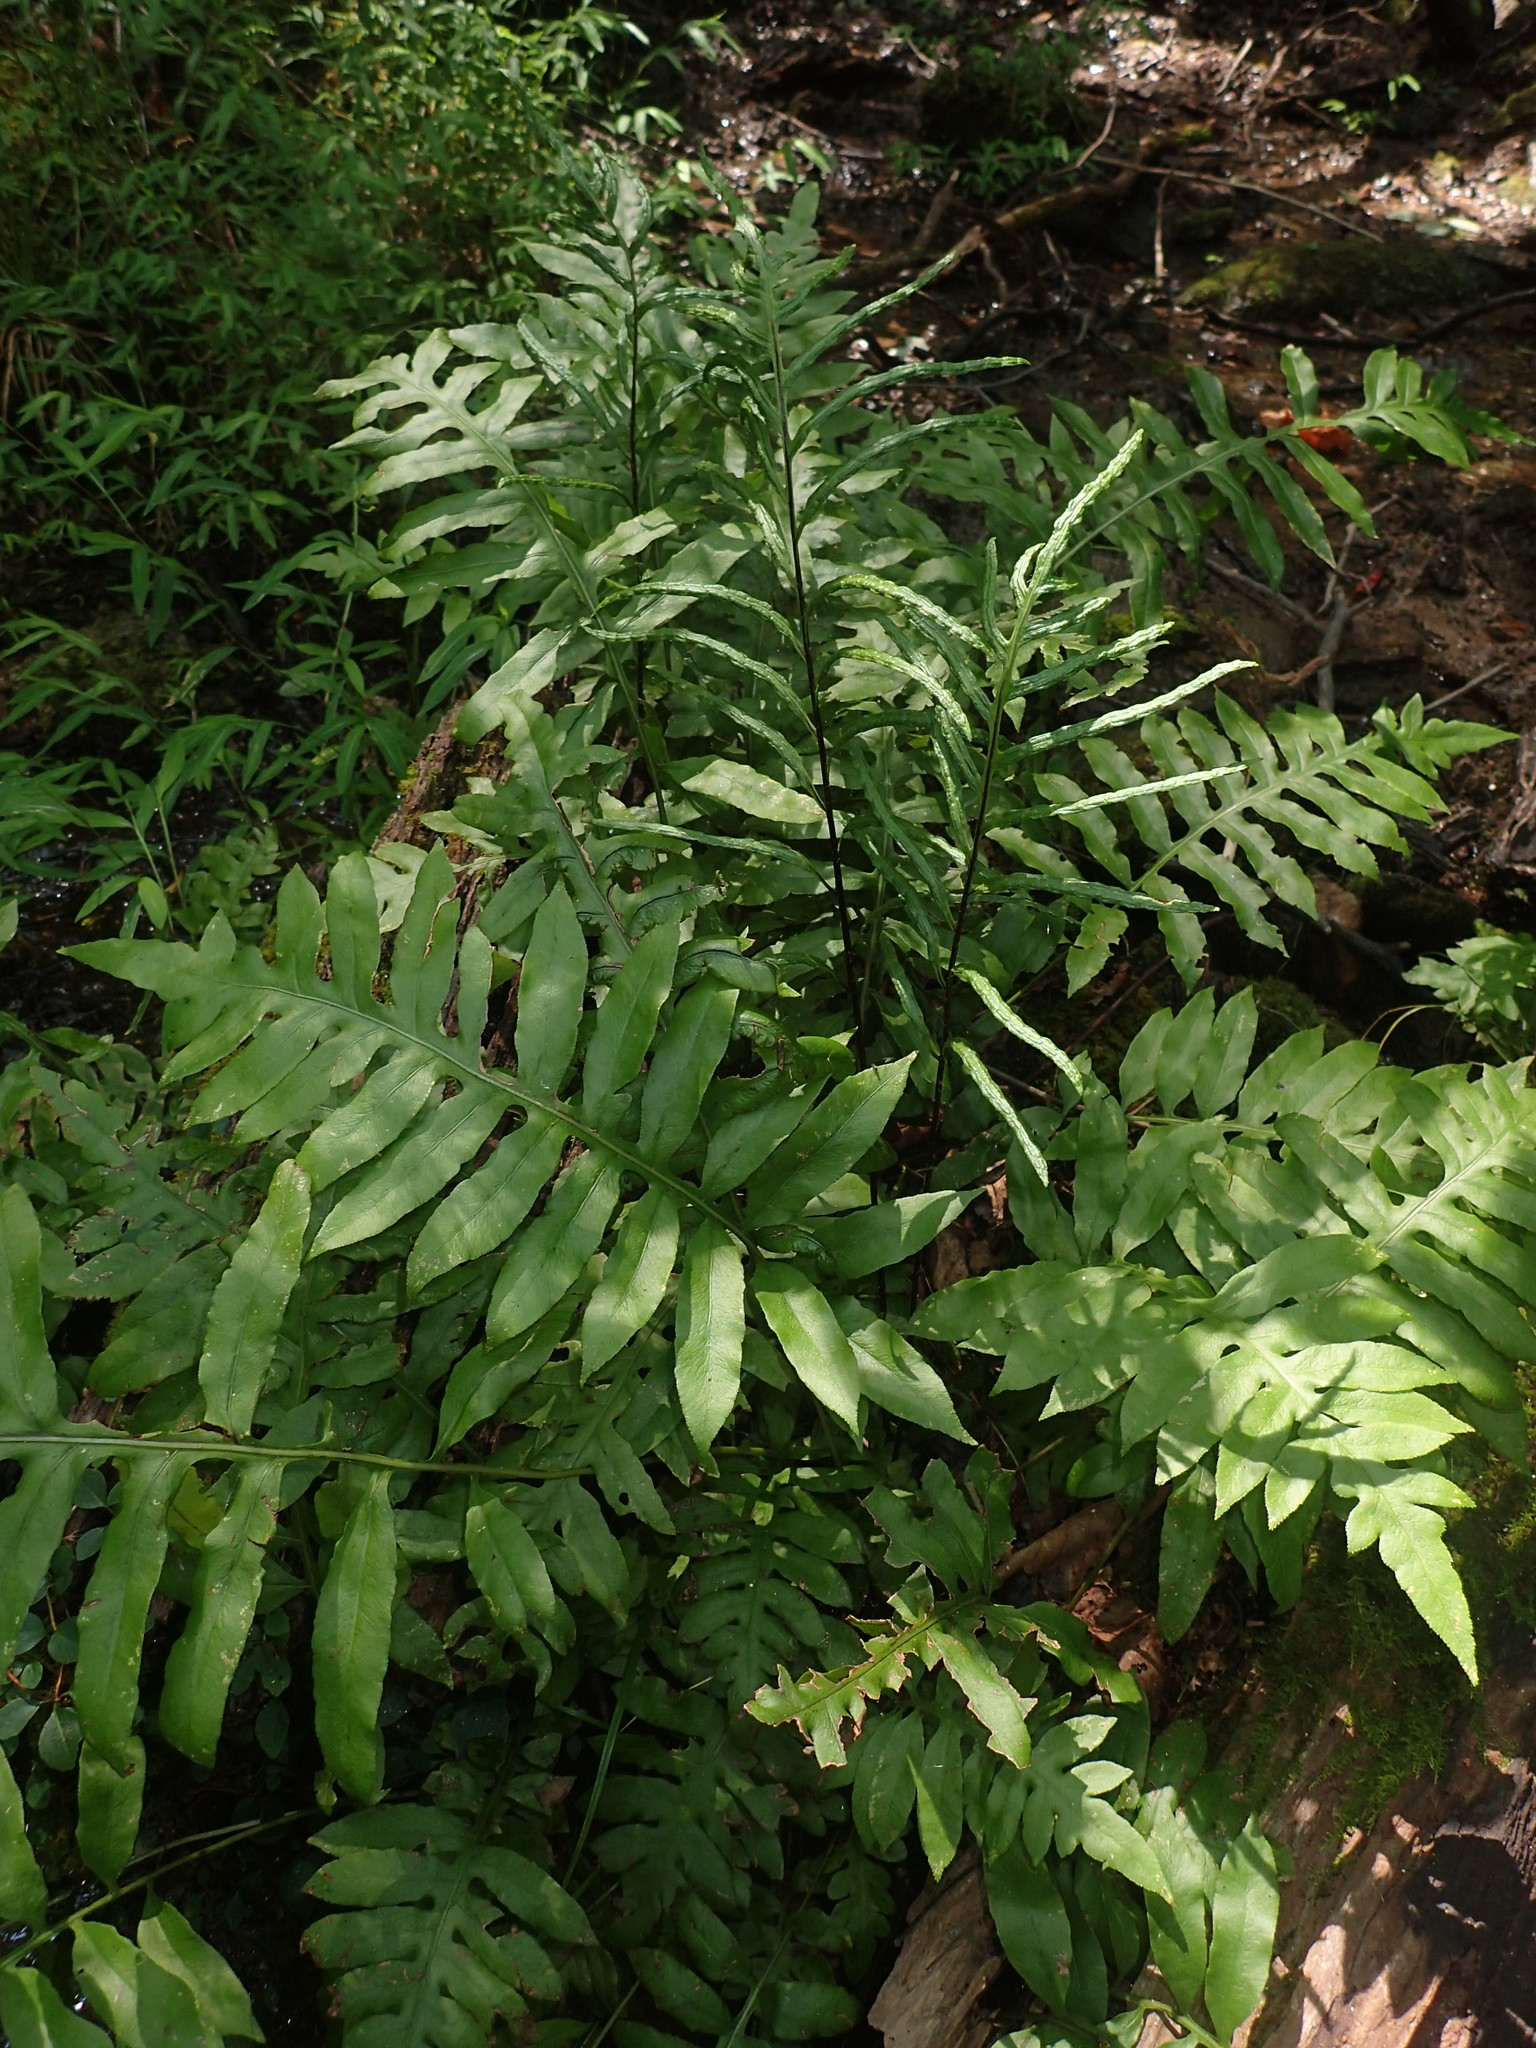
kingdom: Plantae
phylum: Tracheophyta
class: Polypodiopsida
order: Polypodiales
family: Blechnaceae
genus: Lorinseria
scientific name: Lorinseria areolata
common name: Dwarf chain fern
